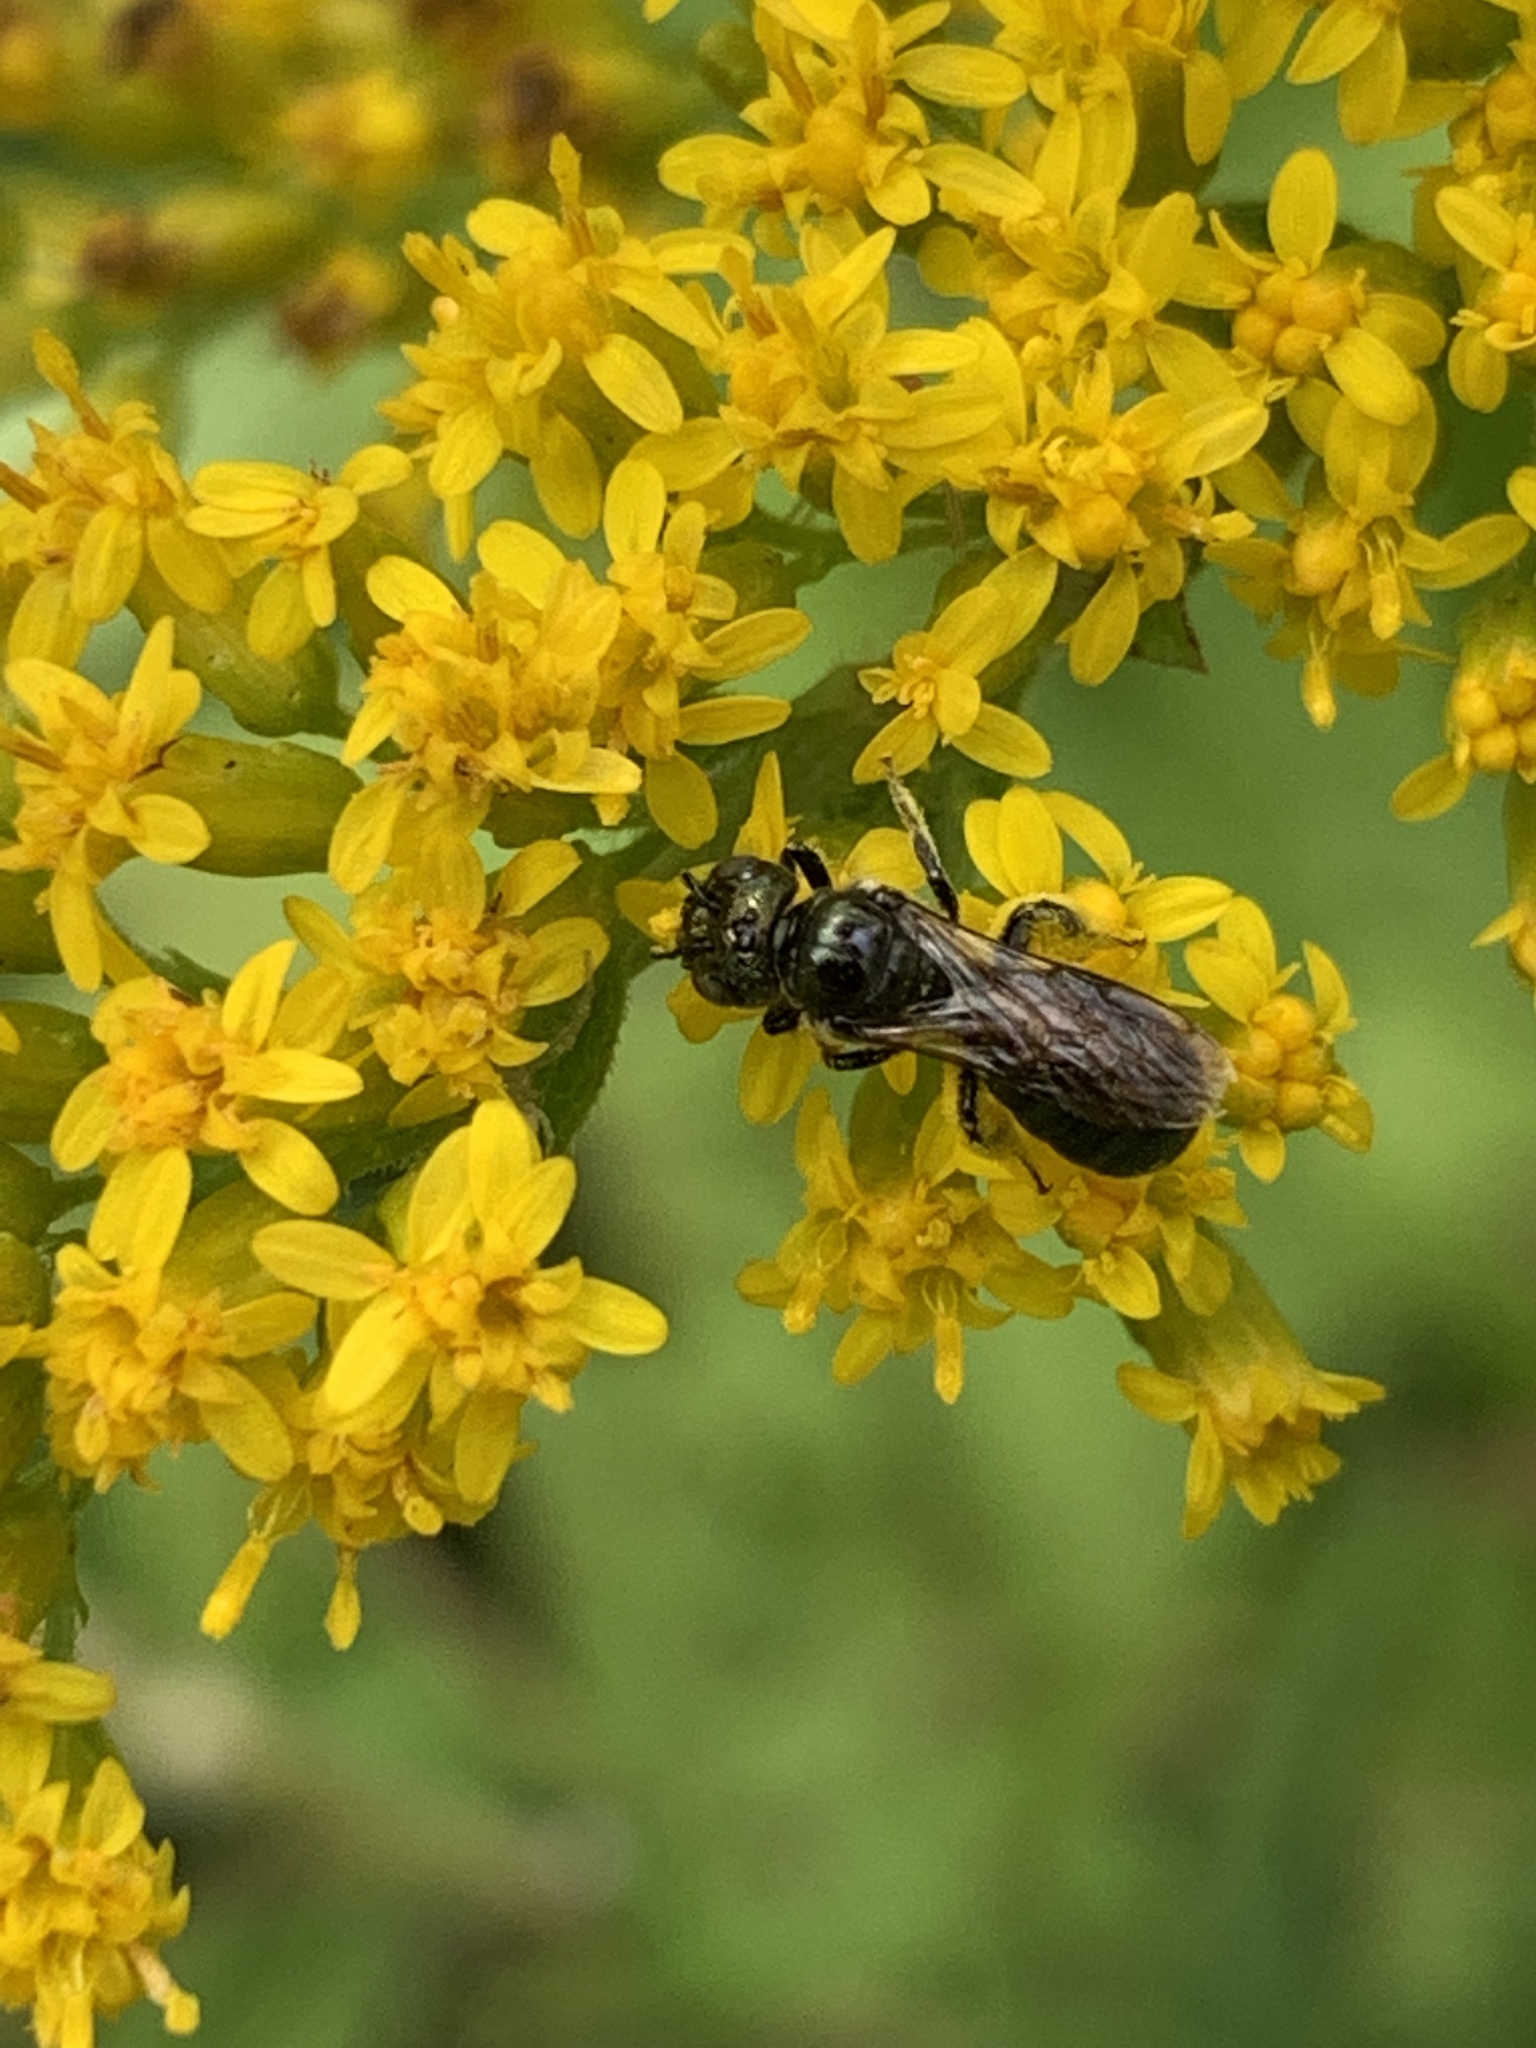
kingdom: Animalia
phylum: Arthropoda
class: Insecta
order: Hymenoptera
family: Apidae
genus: Zadontomerus
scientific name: Zadontomerus
